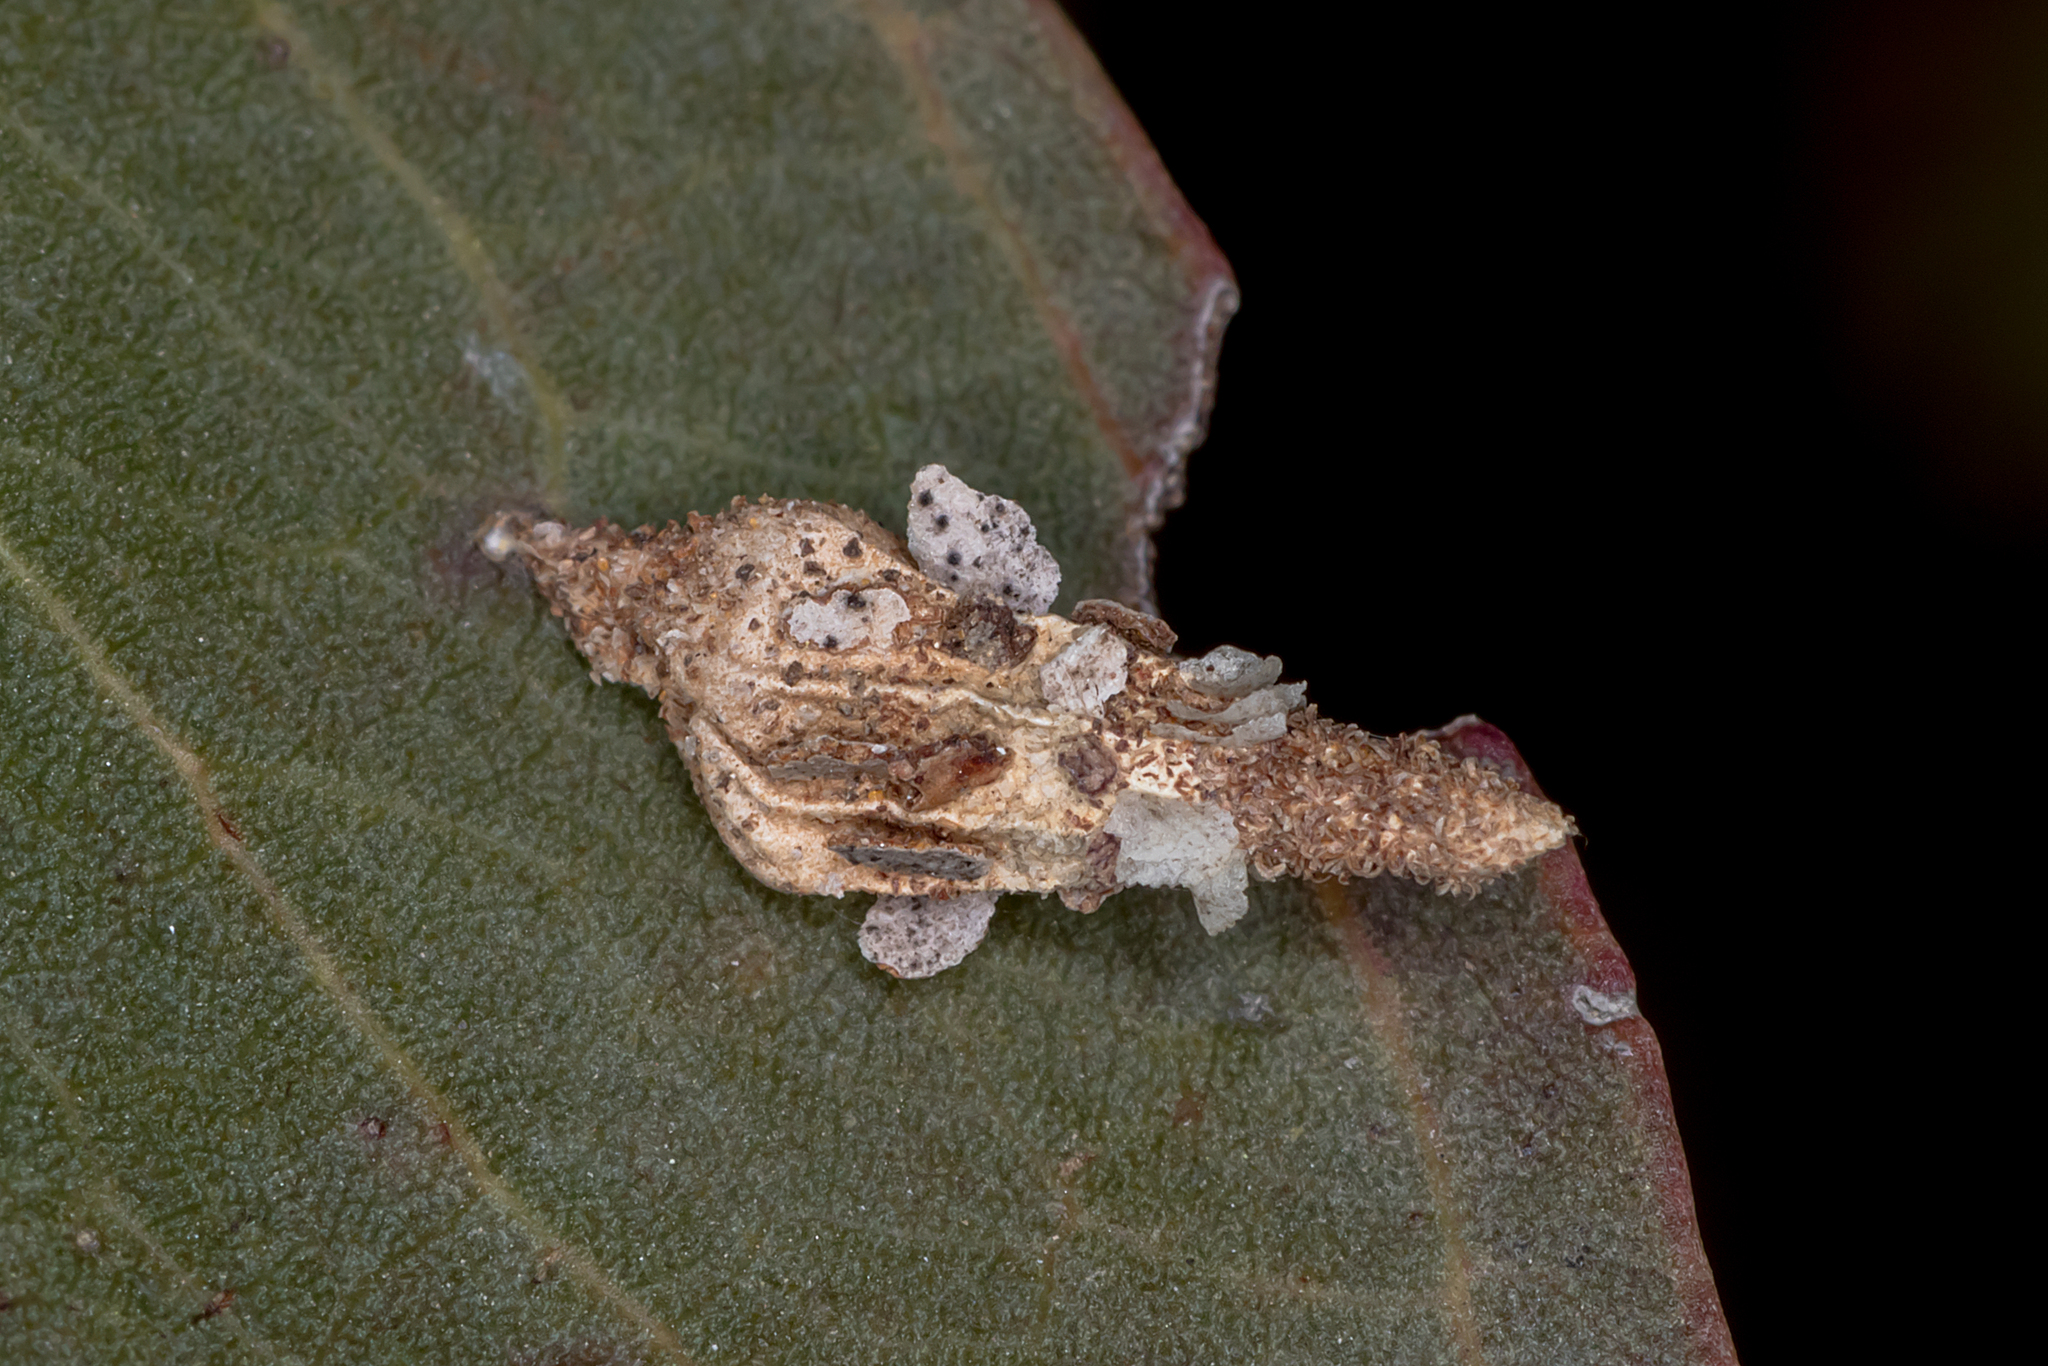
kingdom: Animalia
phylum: Arthropoda
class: Insecta
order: Lepidoptera
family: Psychidae
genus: Hyalarcta
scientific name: Hyalarcta nigrescens
